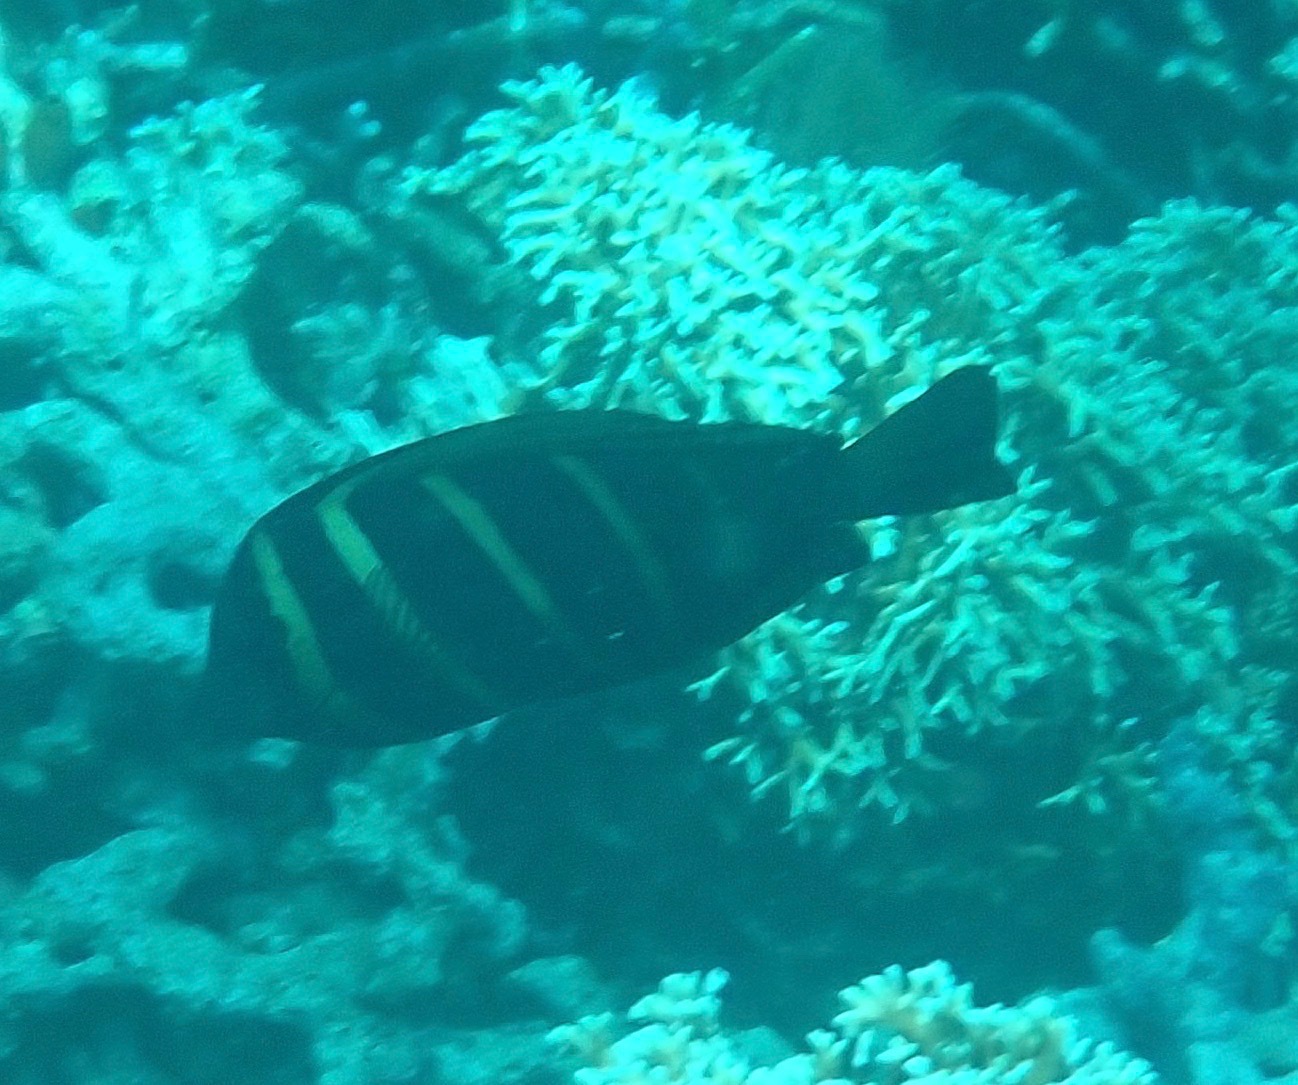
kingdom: Animalia
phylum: Chordata
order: Perciformes
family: Acanthuridae
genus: Zebrasoma
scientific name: Zebrasoma veliferum
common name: Sailfin surgeonfish
